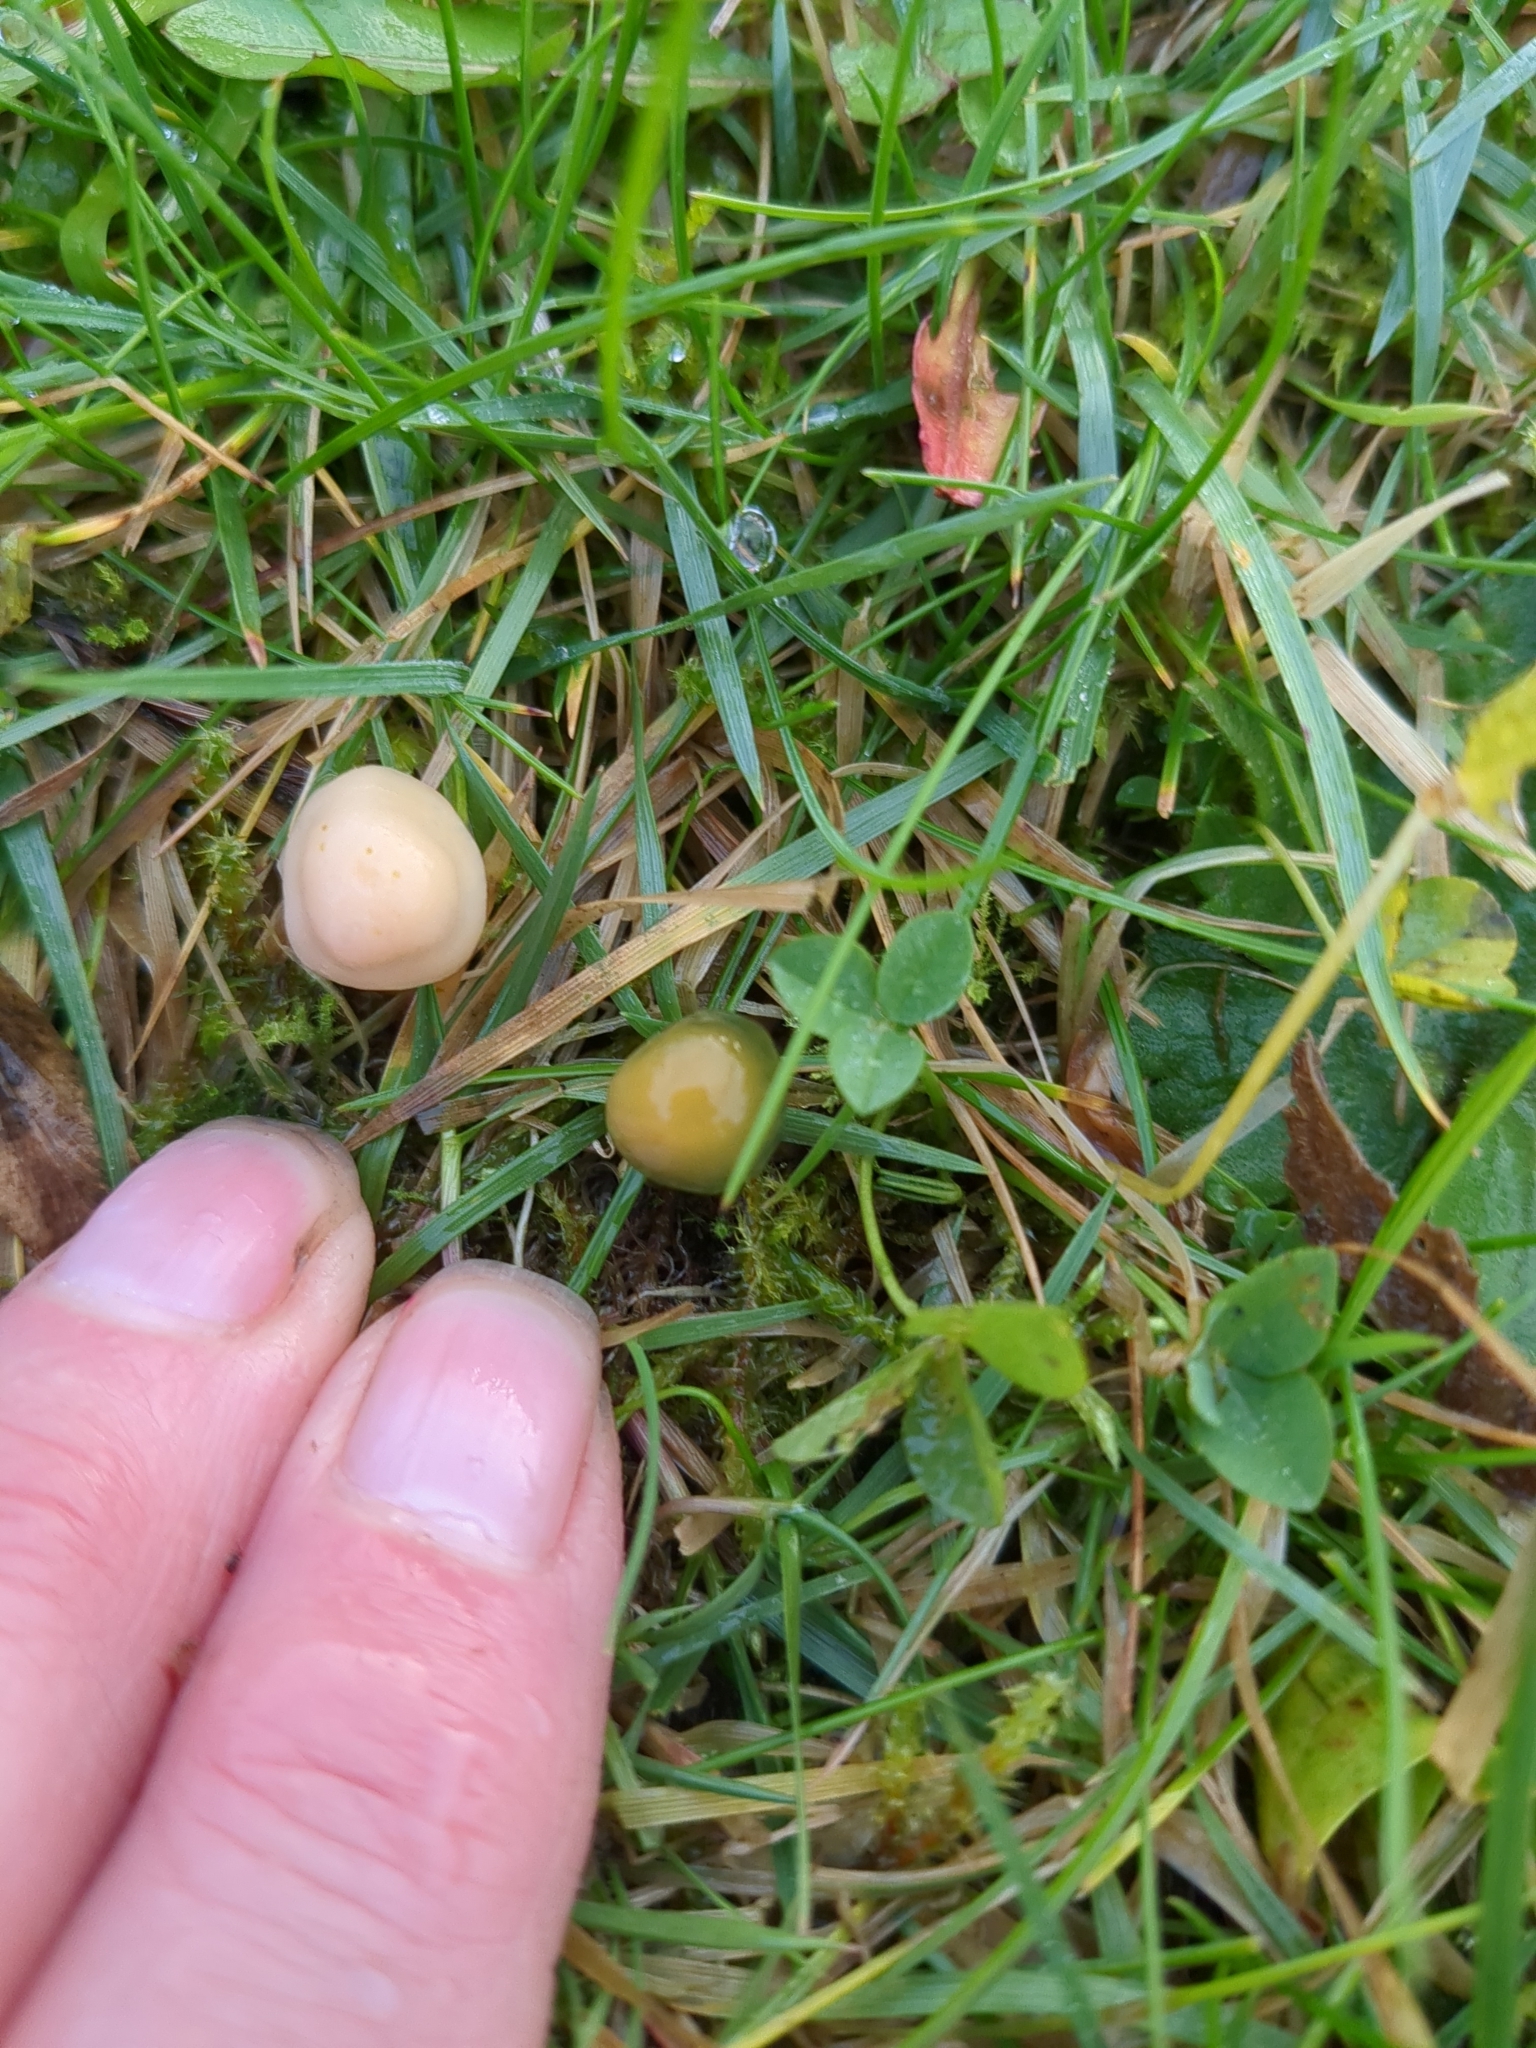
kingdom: Fungi
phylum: Basidiomycota
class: Agaricomycetes
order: Agaricales
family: Hygrophoraceae
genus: Gliophorus
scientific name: Gliophorus psittacinus
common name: Parrot wax-cap
